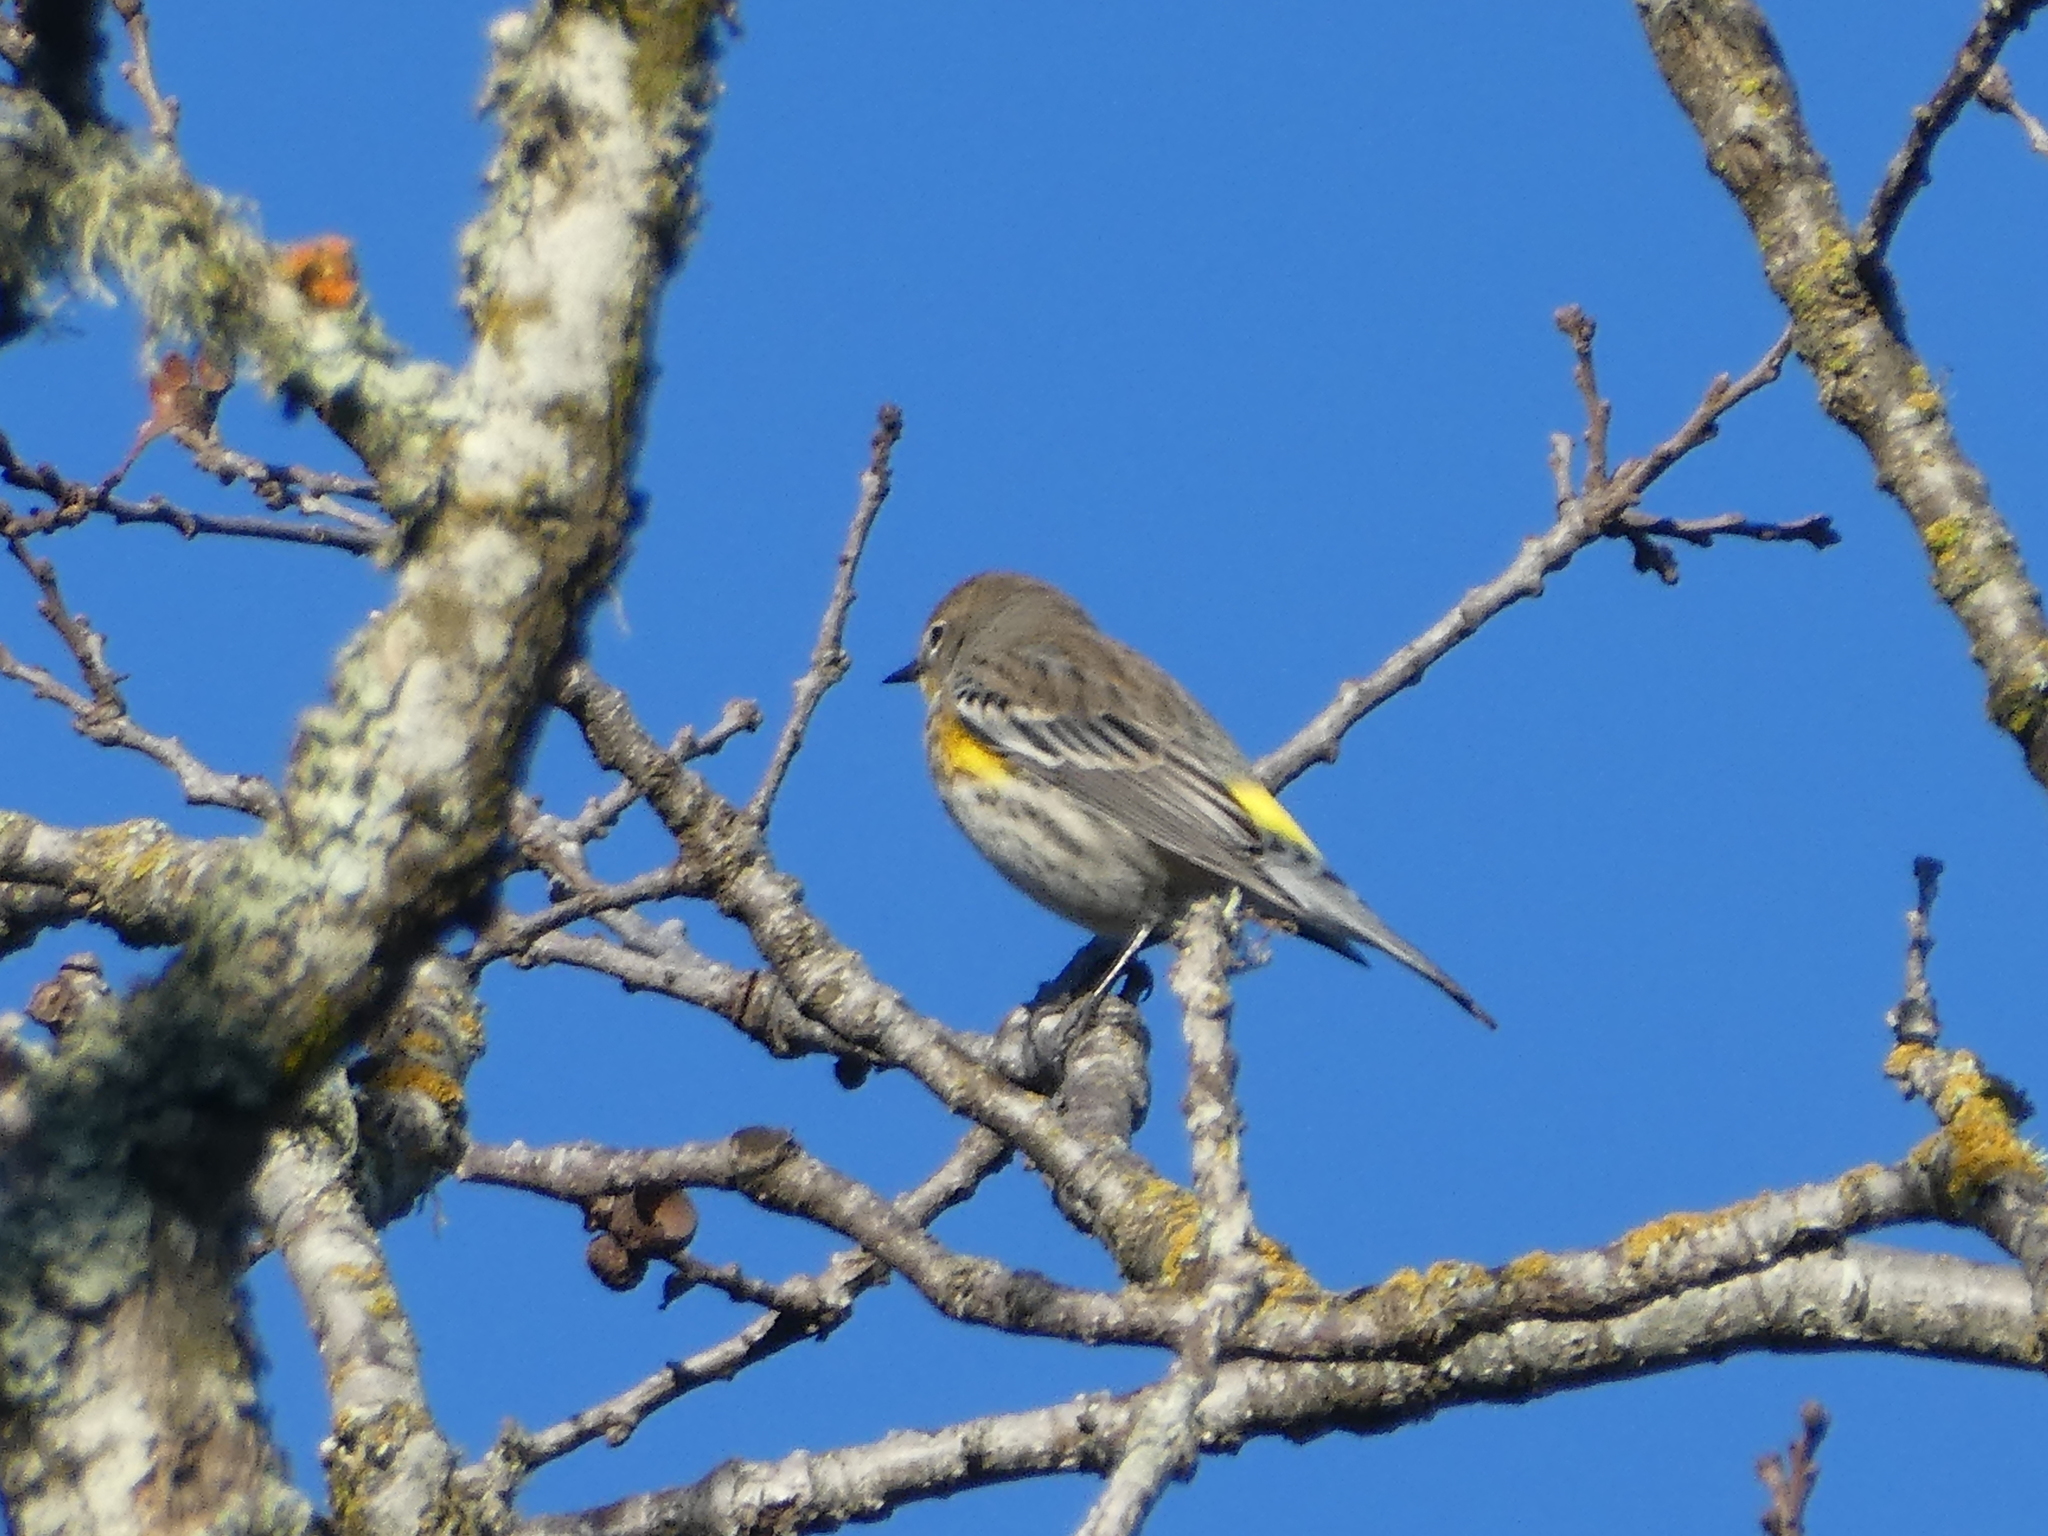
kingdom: Animalia
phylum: Chordata
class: Aves
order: Passeriformes
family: Parulidae
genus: Setophaga
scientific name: Setophaga coronata
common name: Myrtle warbler
